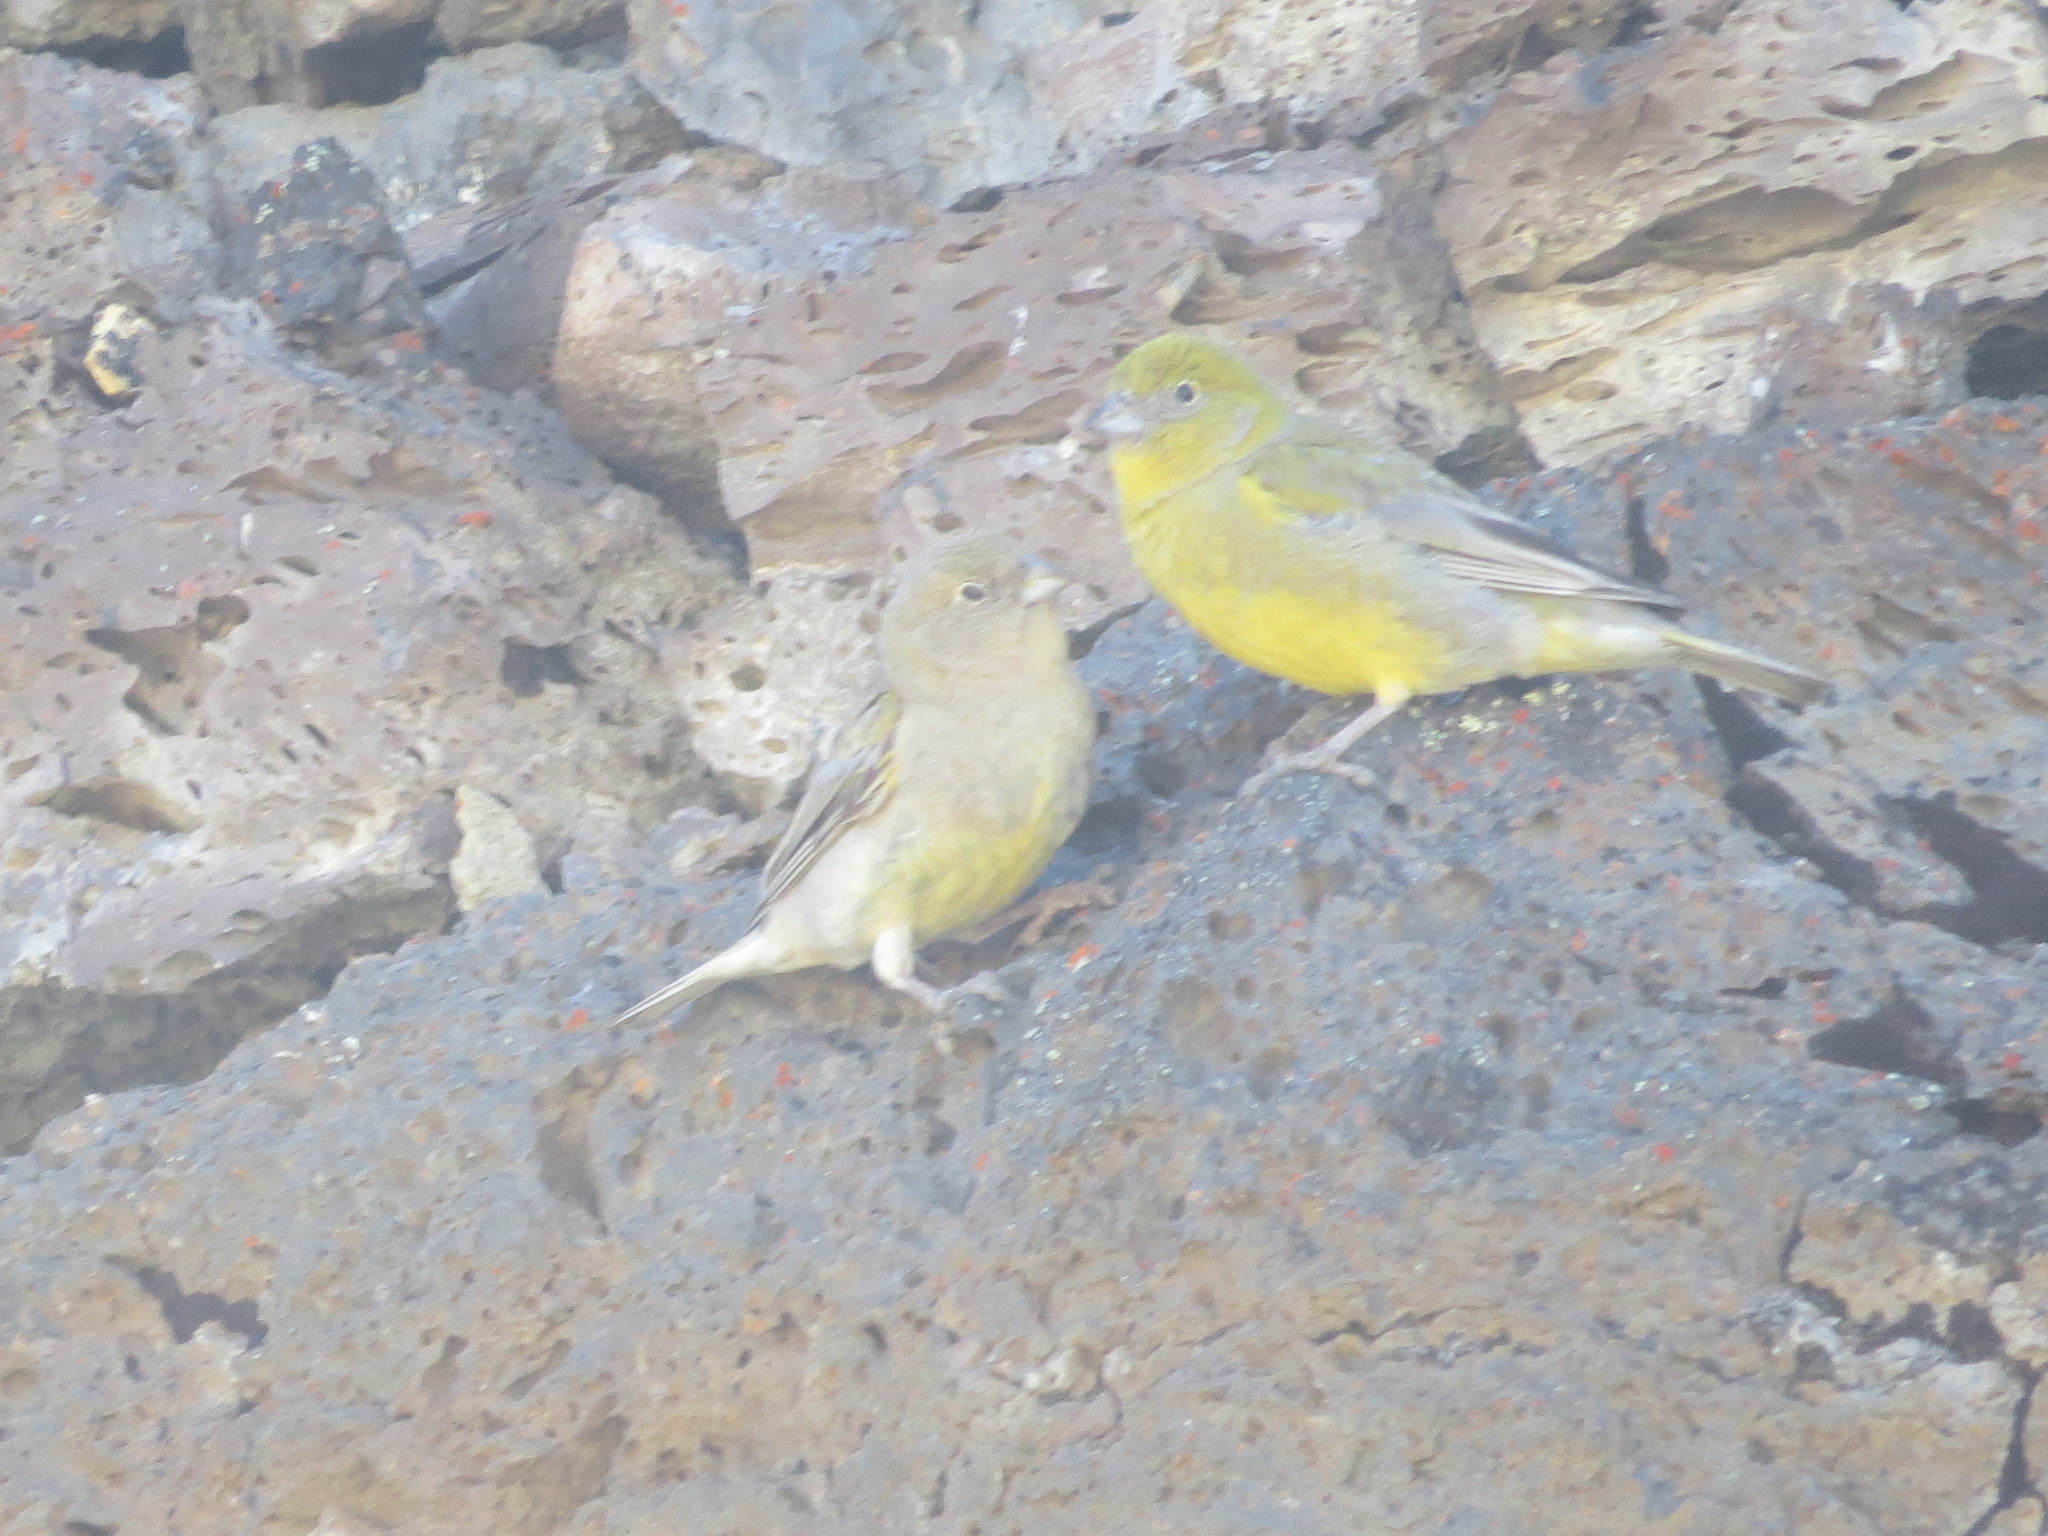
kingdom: Animalia
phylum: Chordata
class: Aves
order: Passeriformes
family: Thraupidae
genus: Sicalis
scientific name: Sicalis lebruni
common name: Patagonian yellow finch
